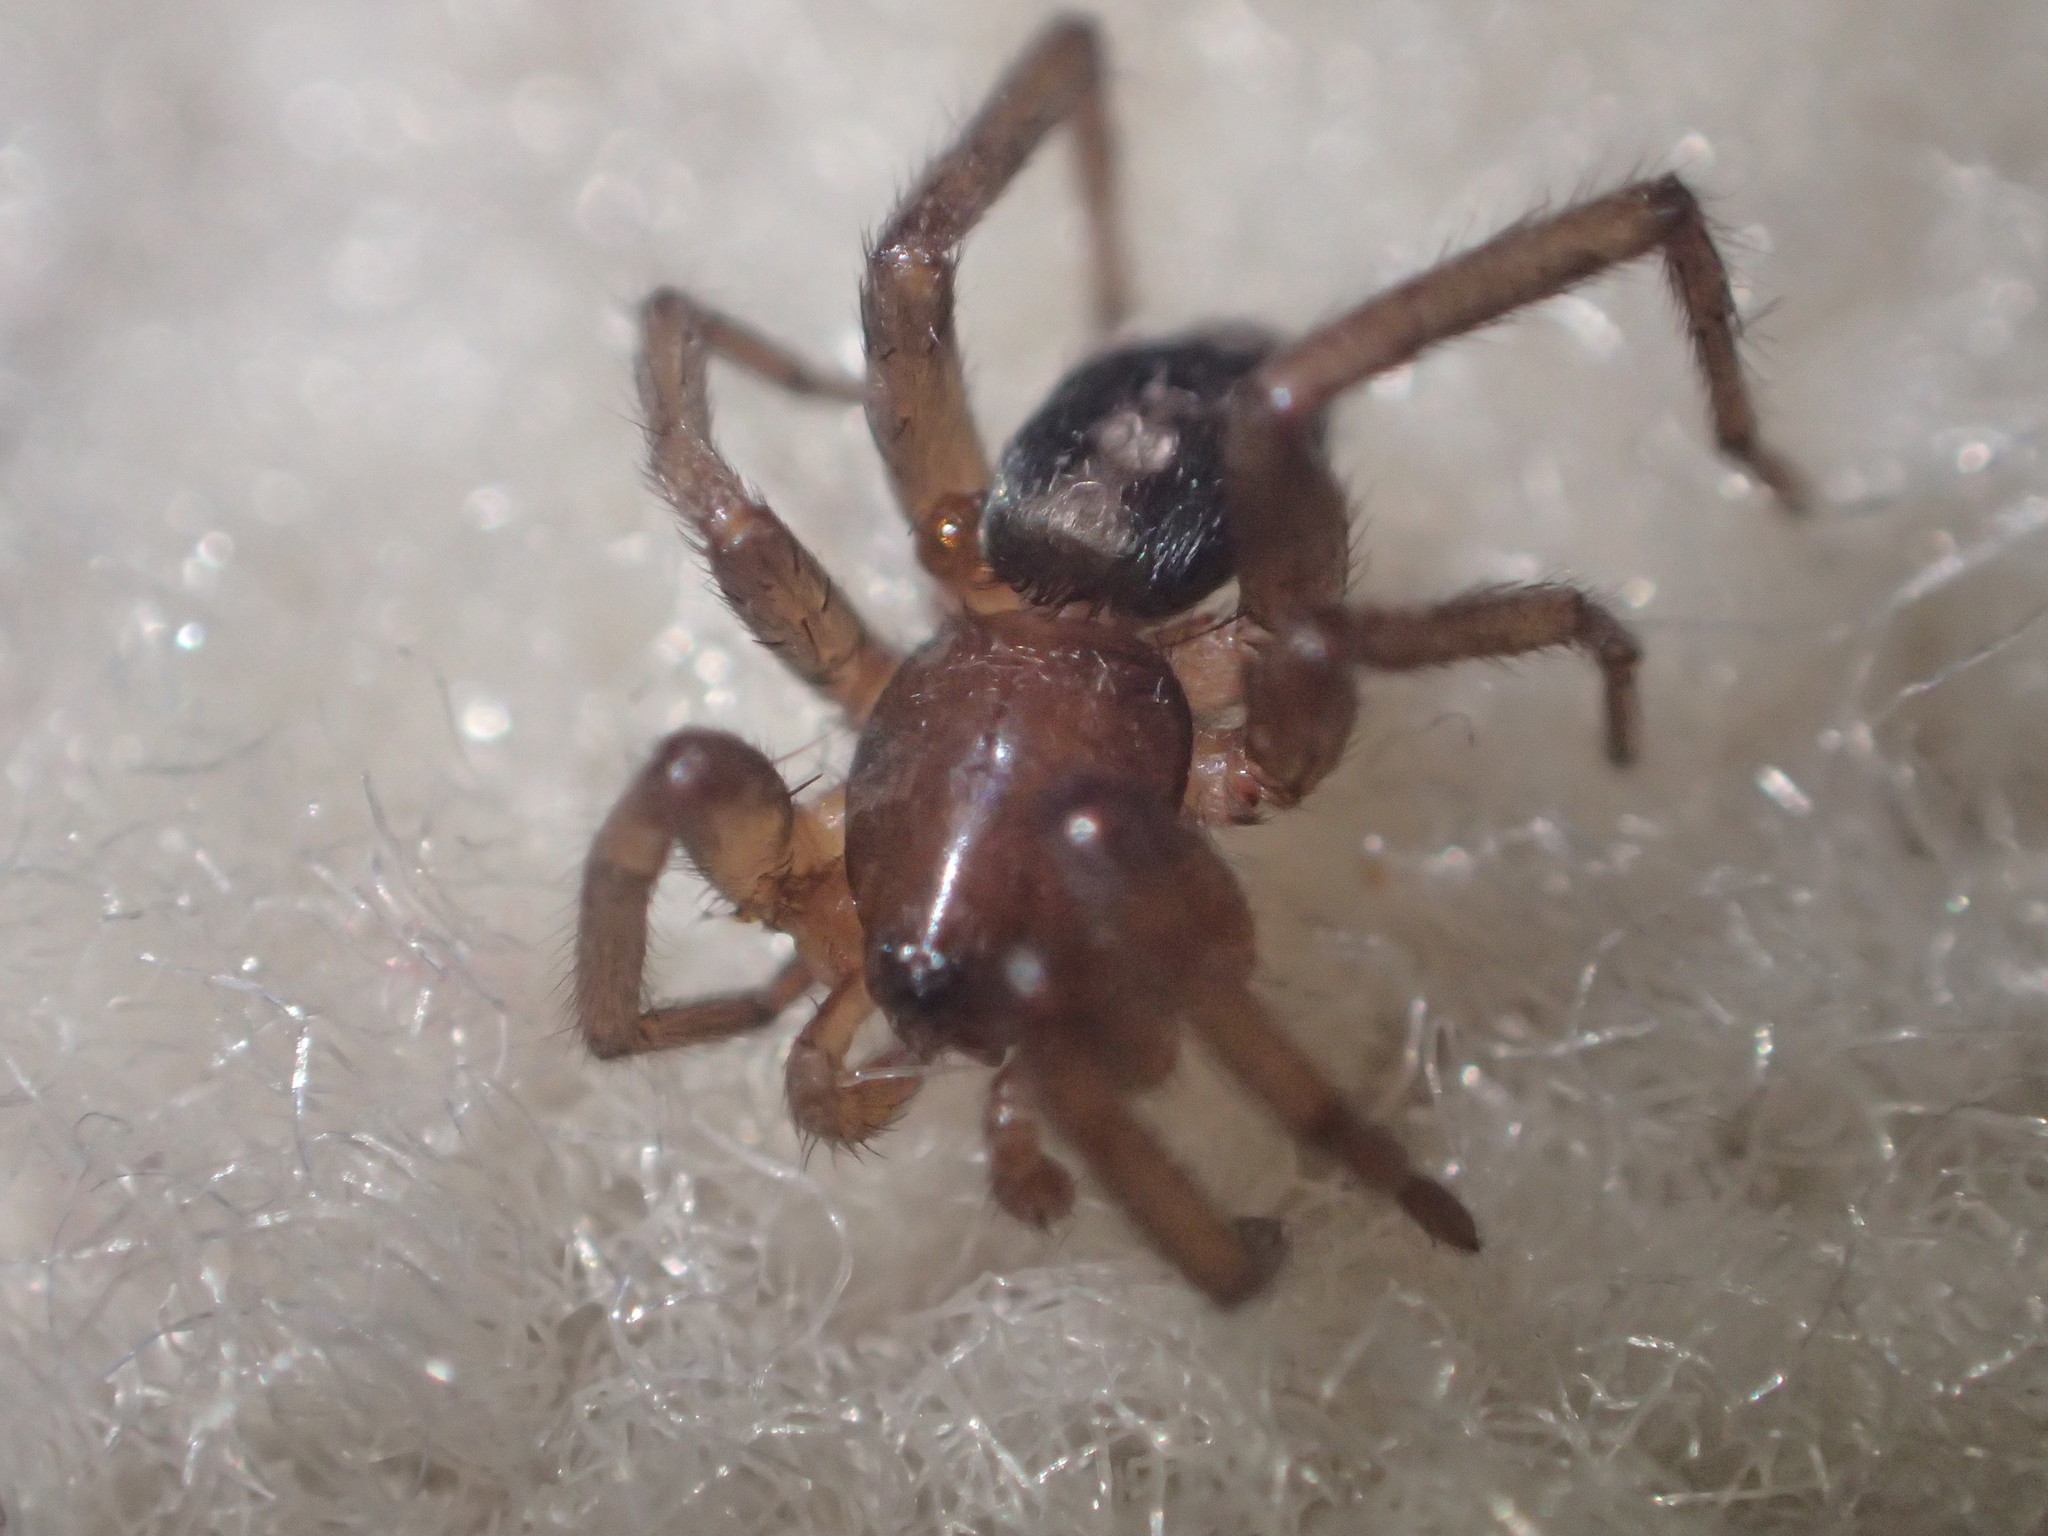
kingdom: Animalia
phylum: Arthropoda
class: Arachnida
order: Araneae
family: Gnaphosidae
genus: Herpyllus
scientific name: Herpyllus ecclesiasticus
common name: Eastern parson spider
